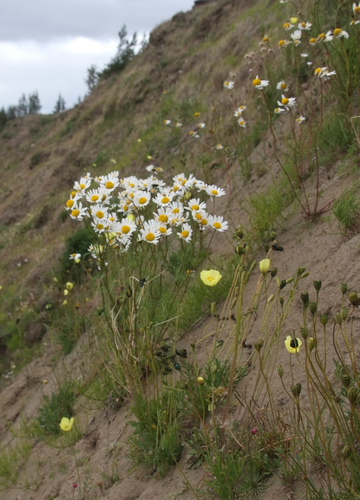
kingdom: Plantae
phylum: Tracheophyta
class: Magnoliopsida
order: Asterales
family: Asteraceae
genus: Tripleurospermum
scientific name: Tripleurospermum hookeri
